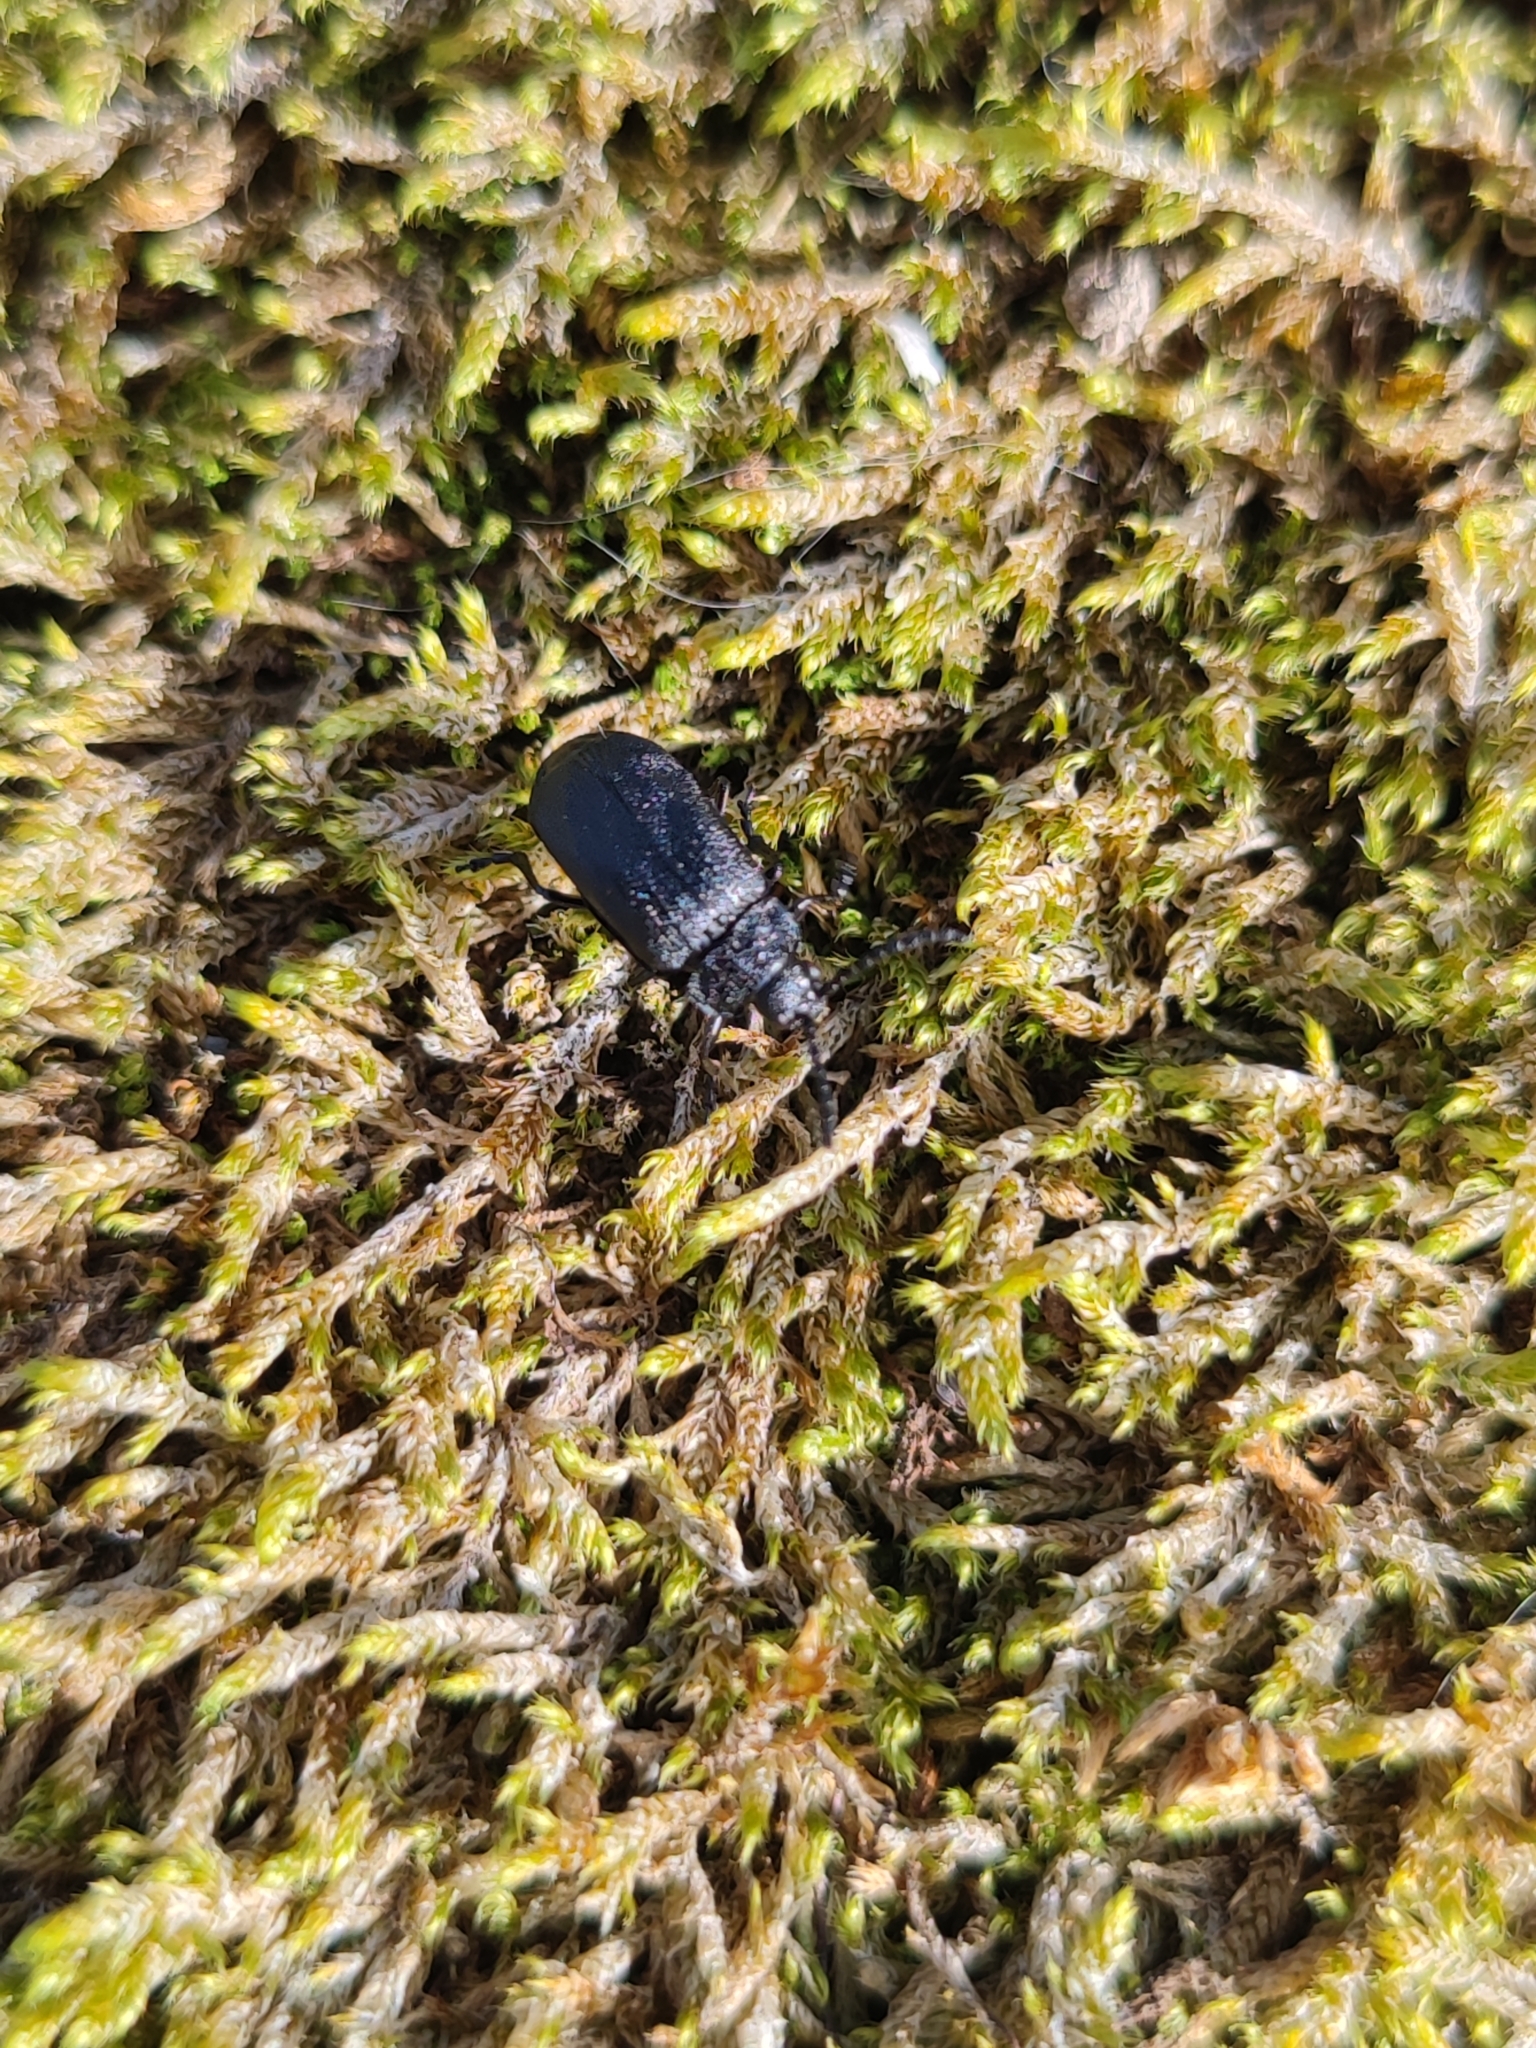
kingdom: Animalia
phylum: Arthropoda
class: Insecta
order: Coleoptera
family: Chrysomelidae
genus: Galeruca
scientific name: Galeruca tanaceti
